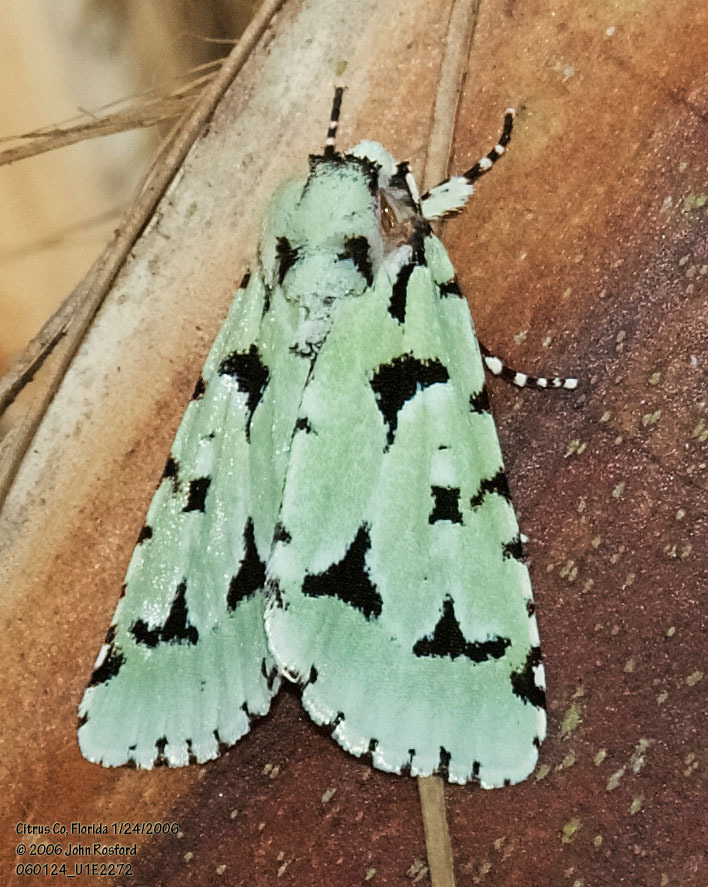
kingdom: Animalia
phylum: Arthropoda
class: Insecta
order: Lepidoptera
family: Noctuidae
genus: Acronicta
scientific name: Acronicta fallax
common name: Green marvel
